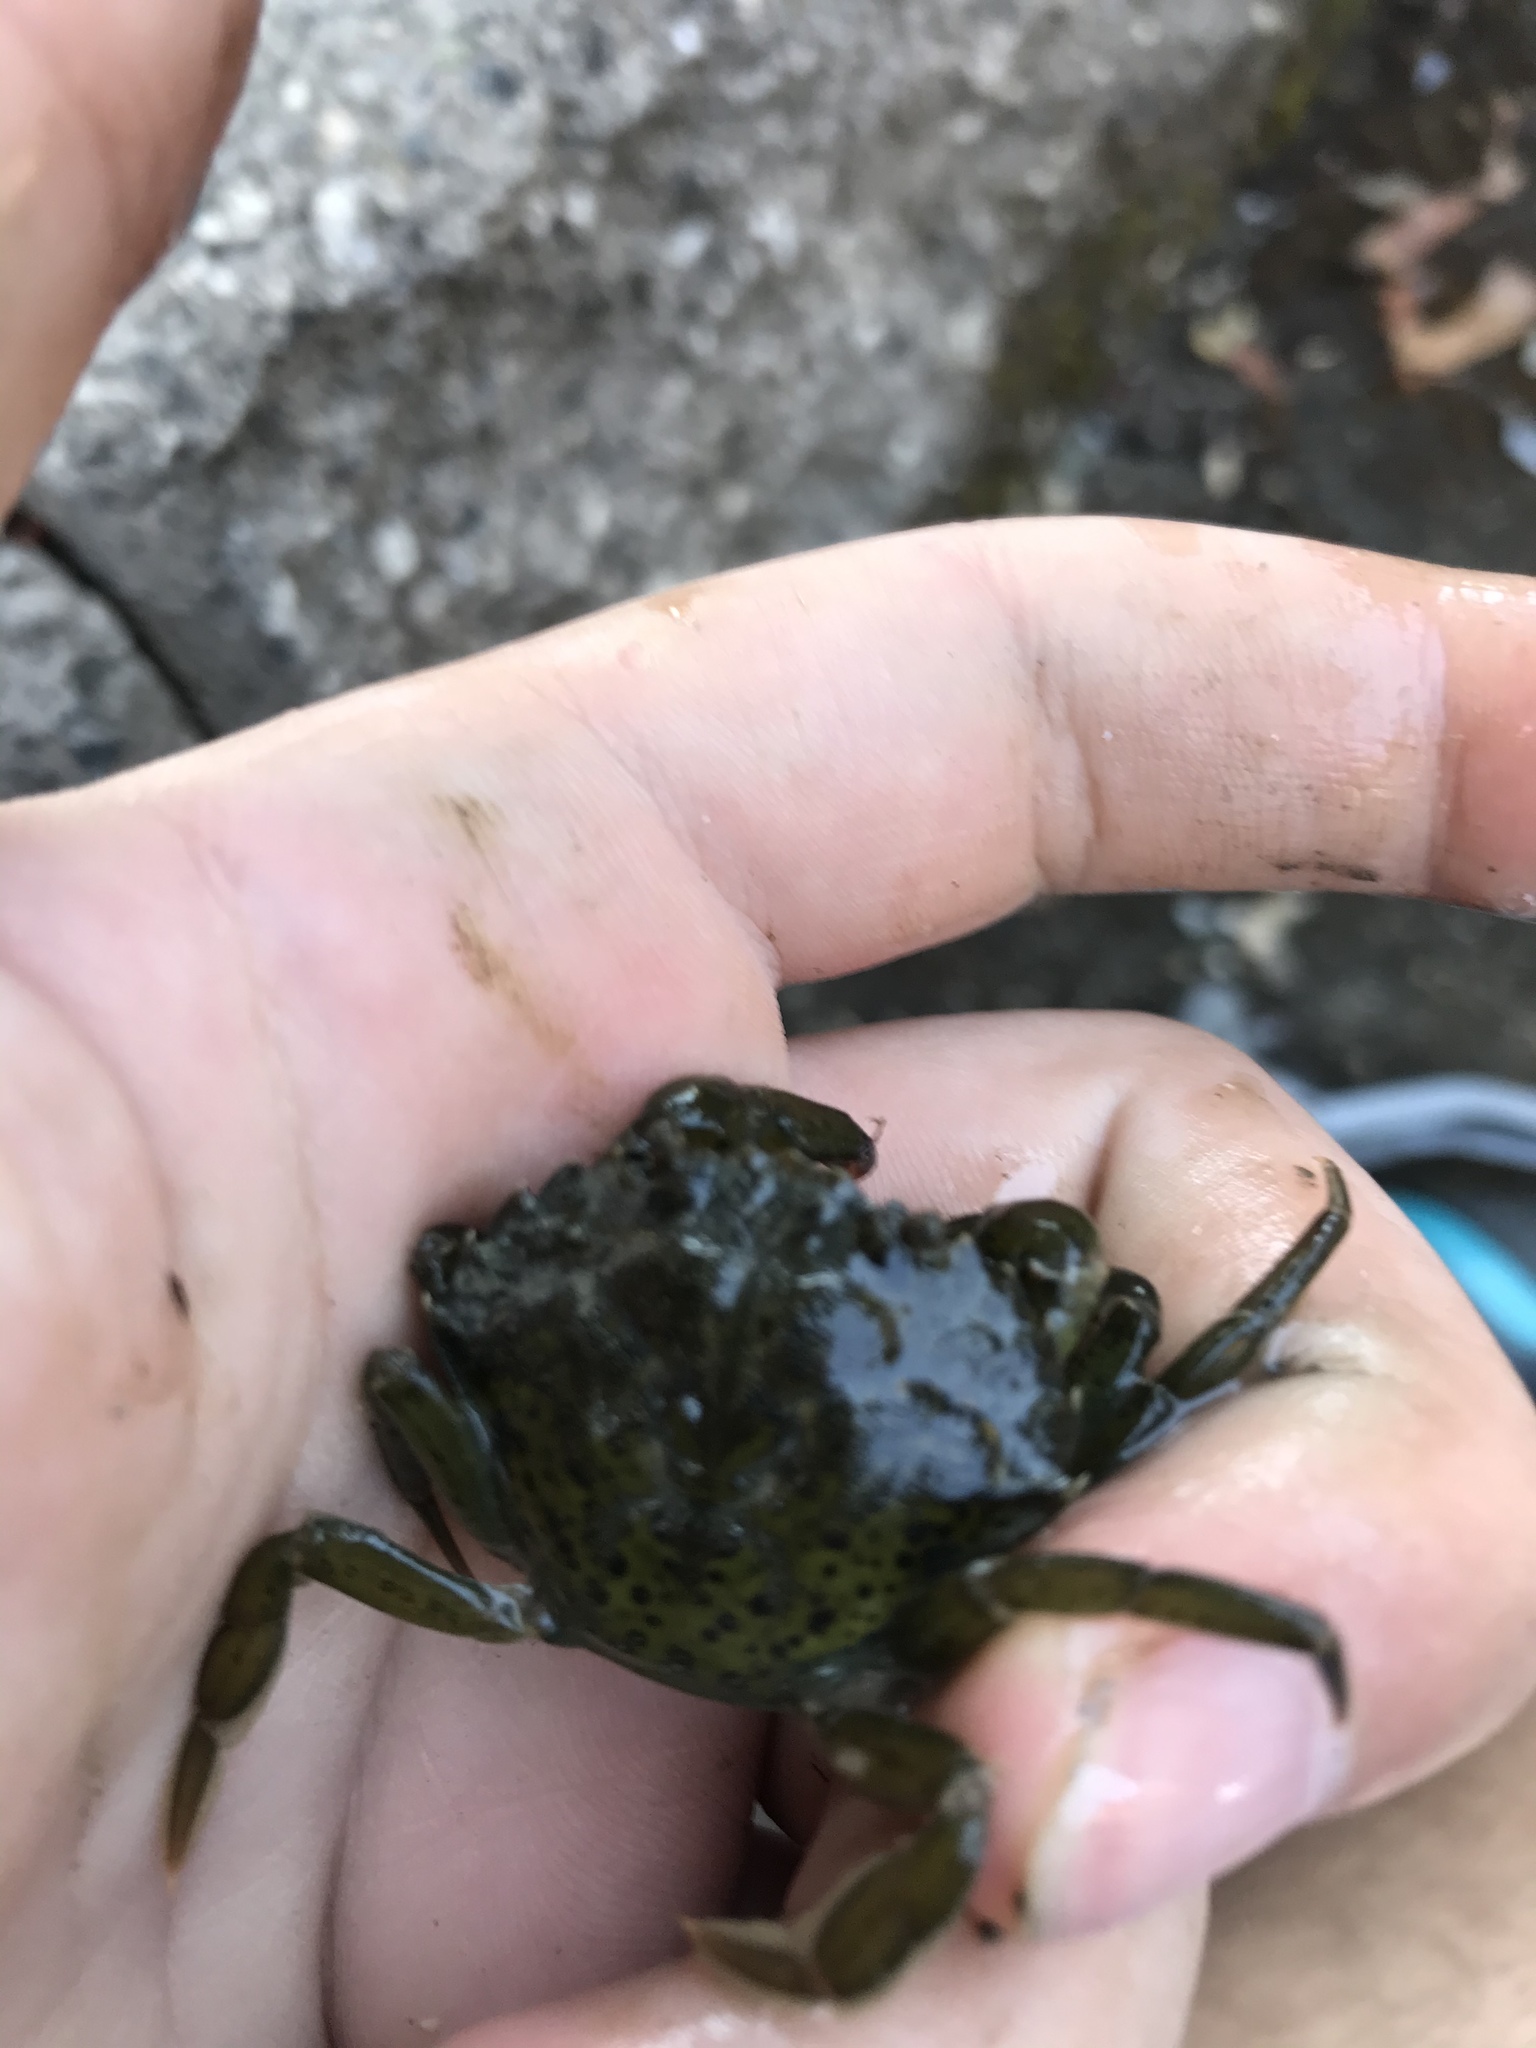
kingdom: Animalia
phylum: Arthropoda
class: Malacostraca
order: Decapoda
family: Carcinidae
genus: Carcinus
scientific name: Carcinus maenas
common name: European green crab
